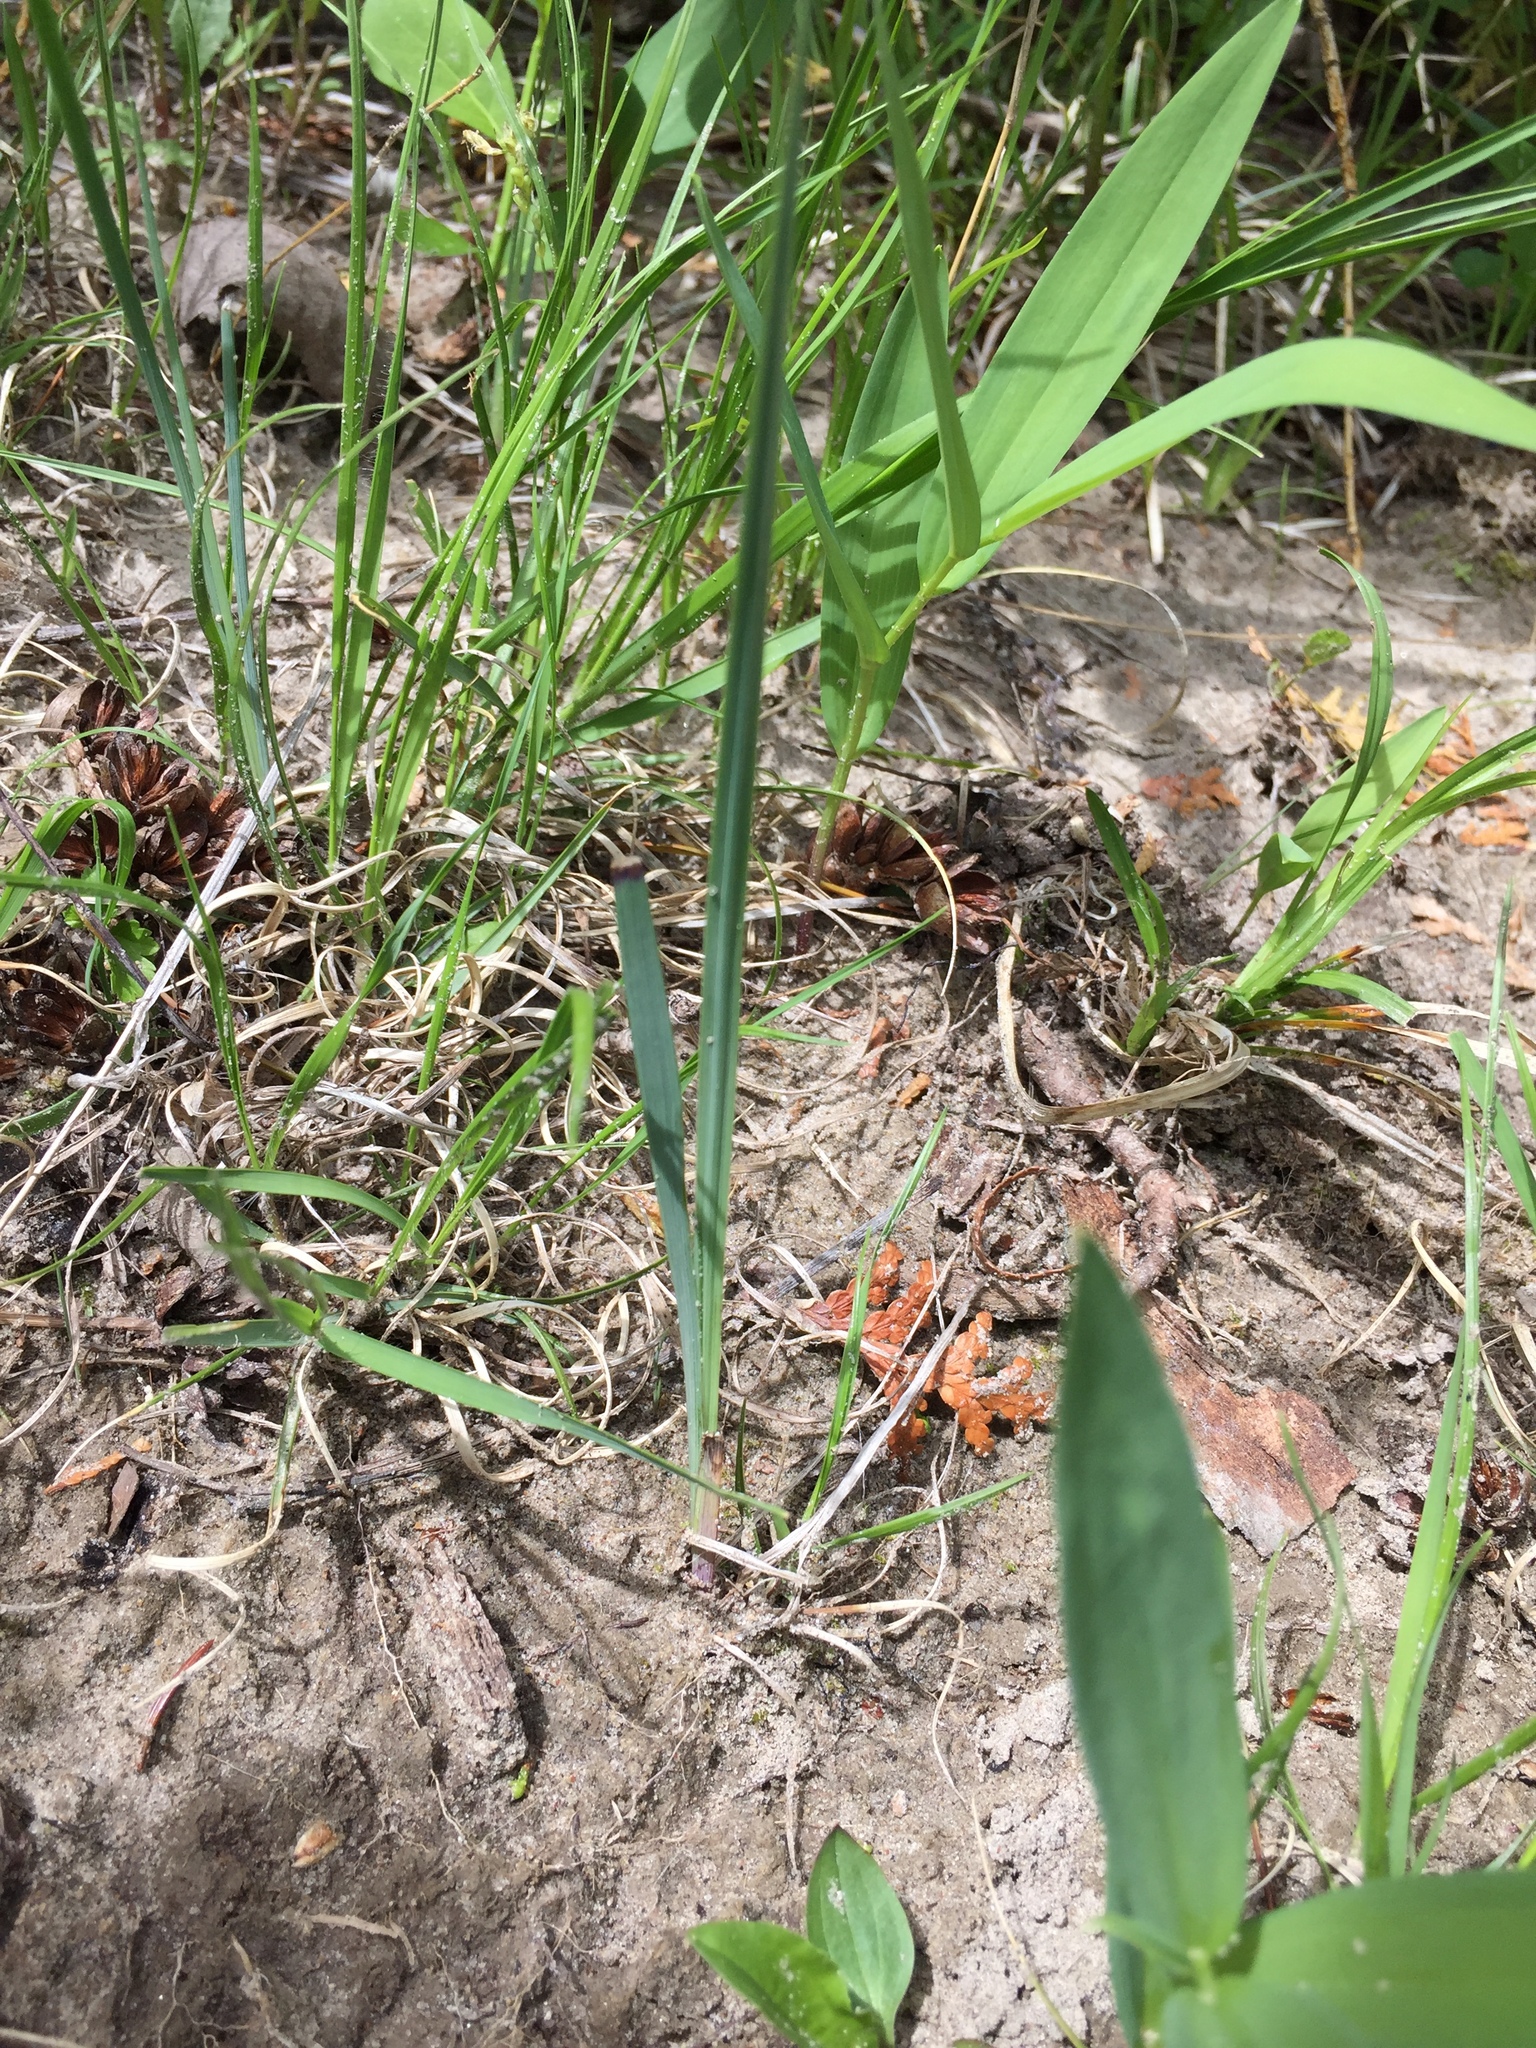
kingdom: Plantae
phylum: Tracheophyta
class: Liliopsida
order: Asparagales
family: Iridaceae
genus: Sisyrinchium
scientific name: Sisyrinchium montanum
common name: American blue-eyed-grass
